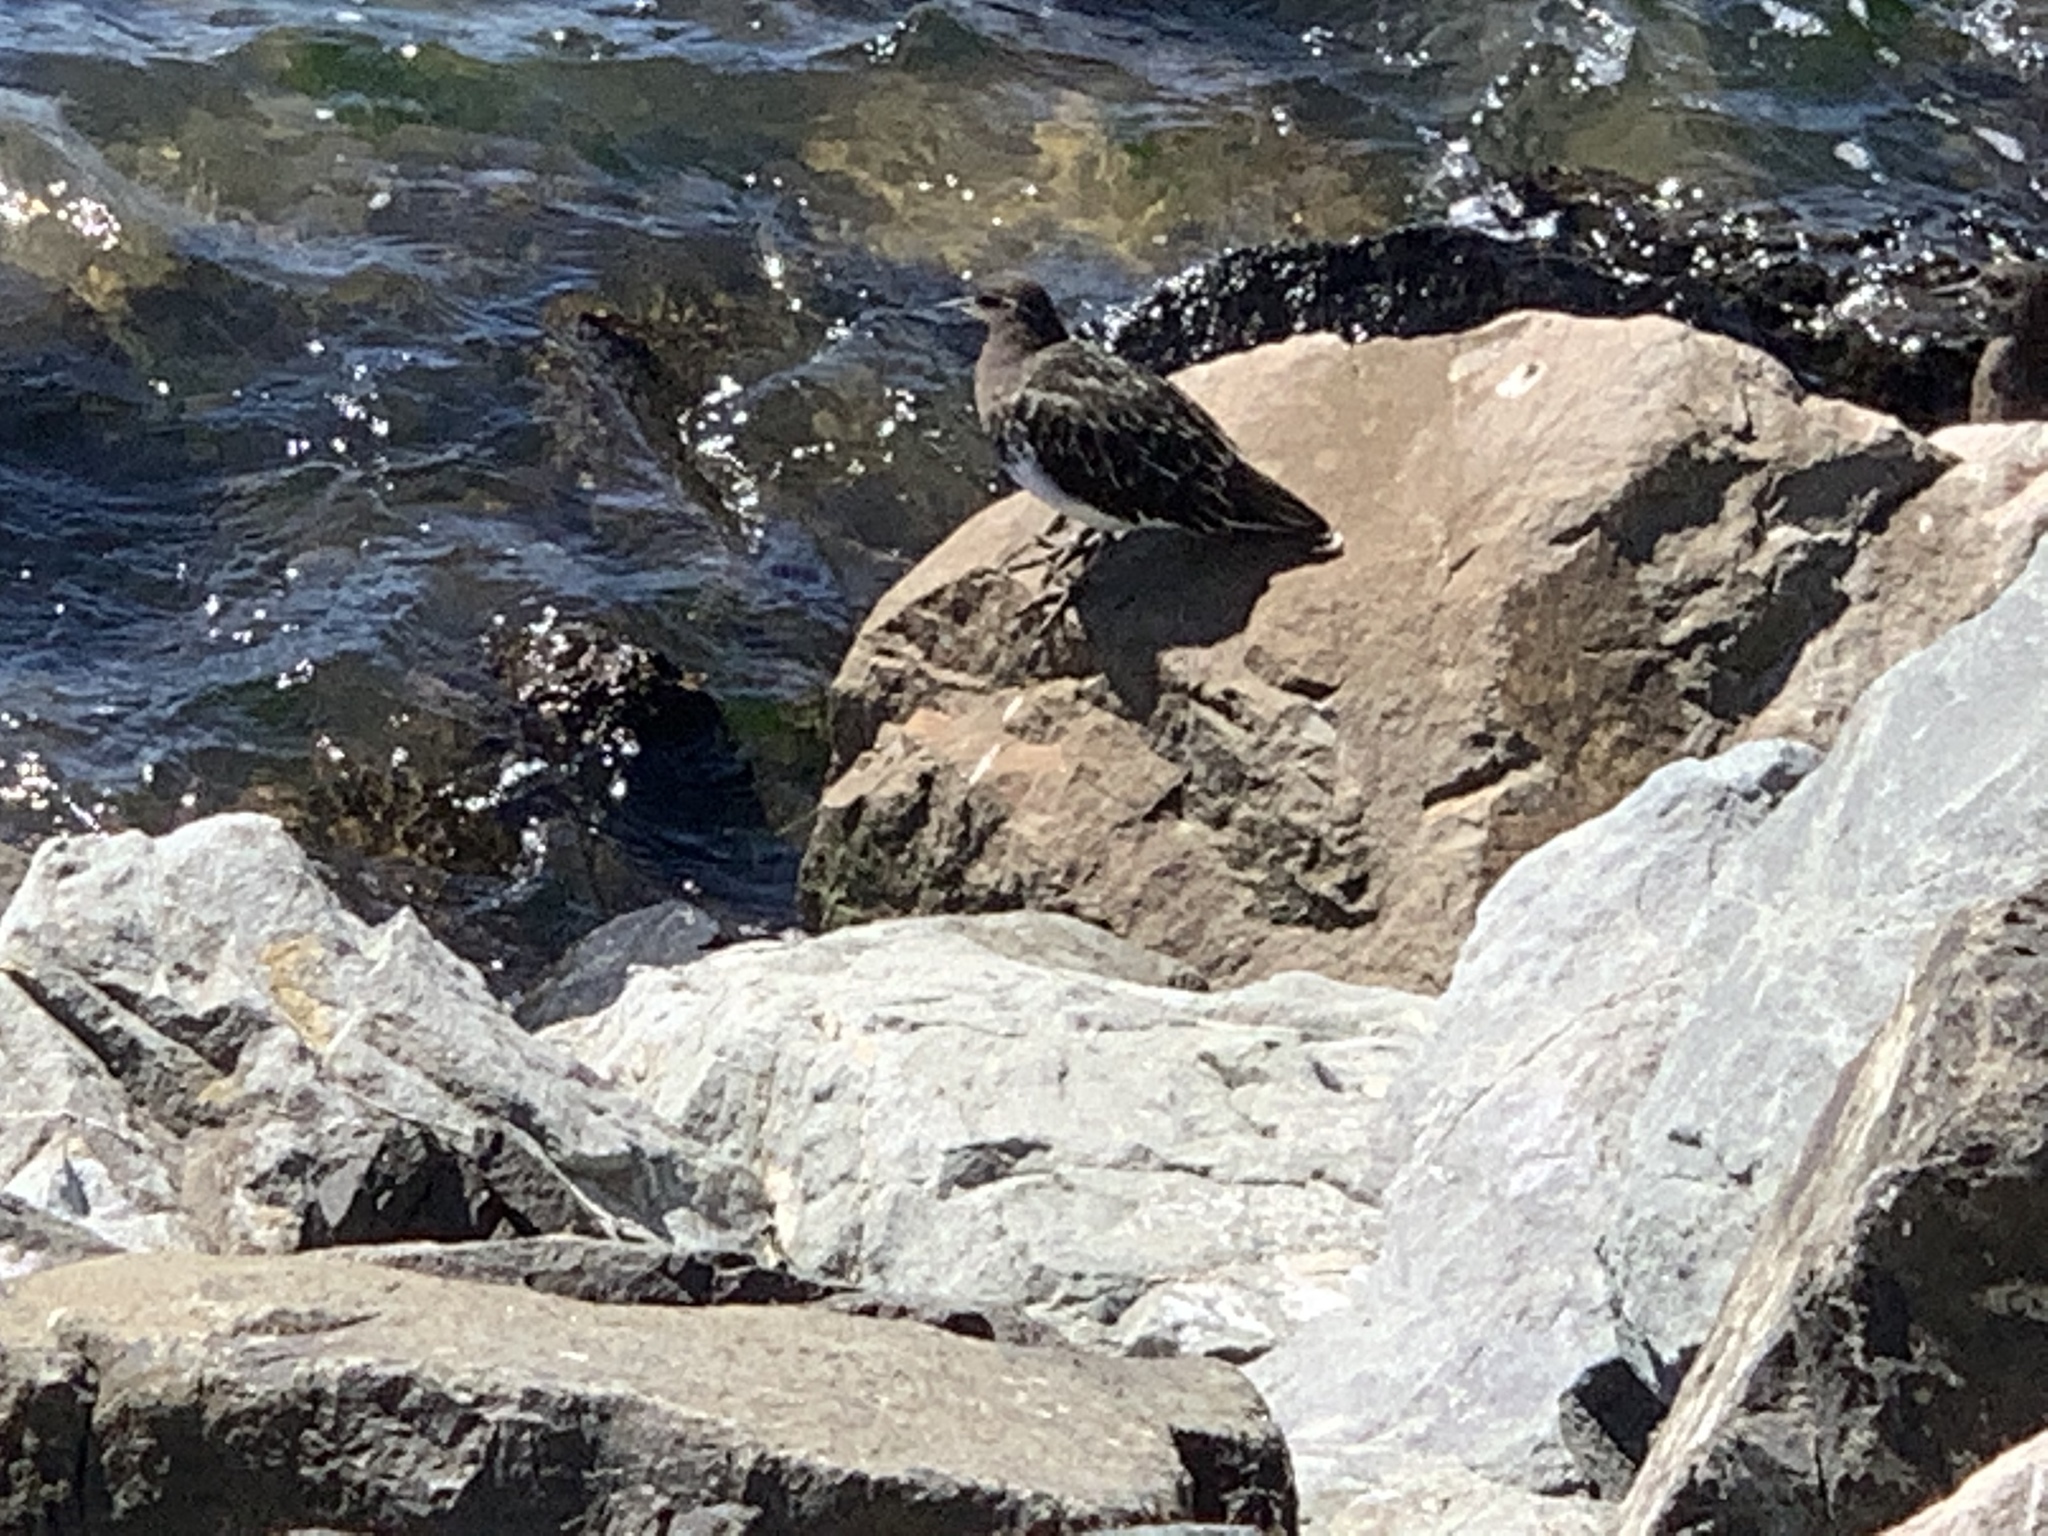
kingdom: Animalia
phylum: Chordata
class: Aves
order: Charadriiformes
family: Scolopacidae
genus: Arenaria
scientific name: Arenaria melanocephala
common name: Black turnstone
